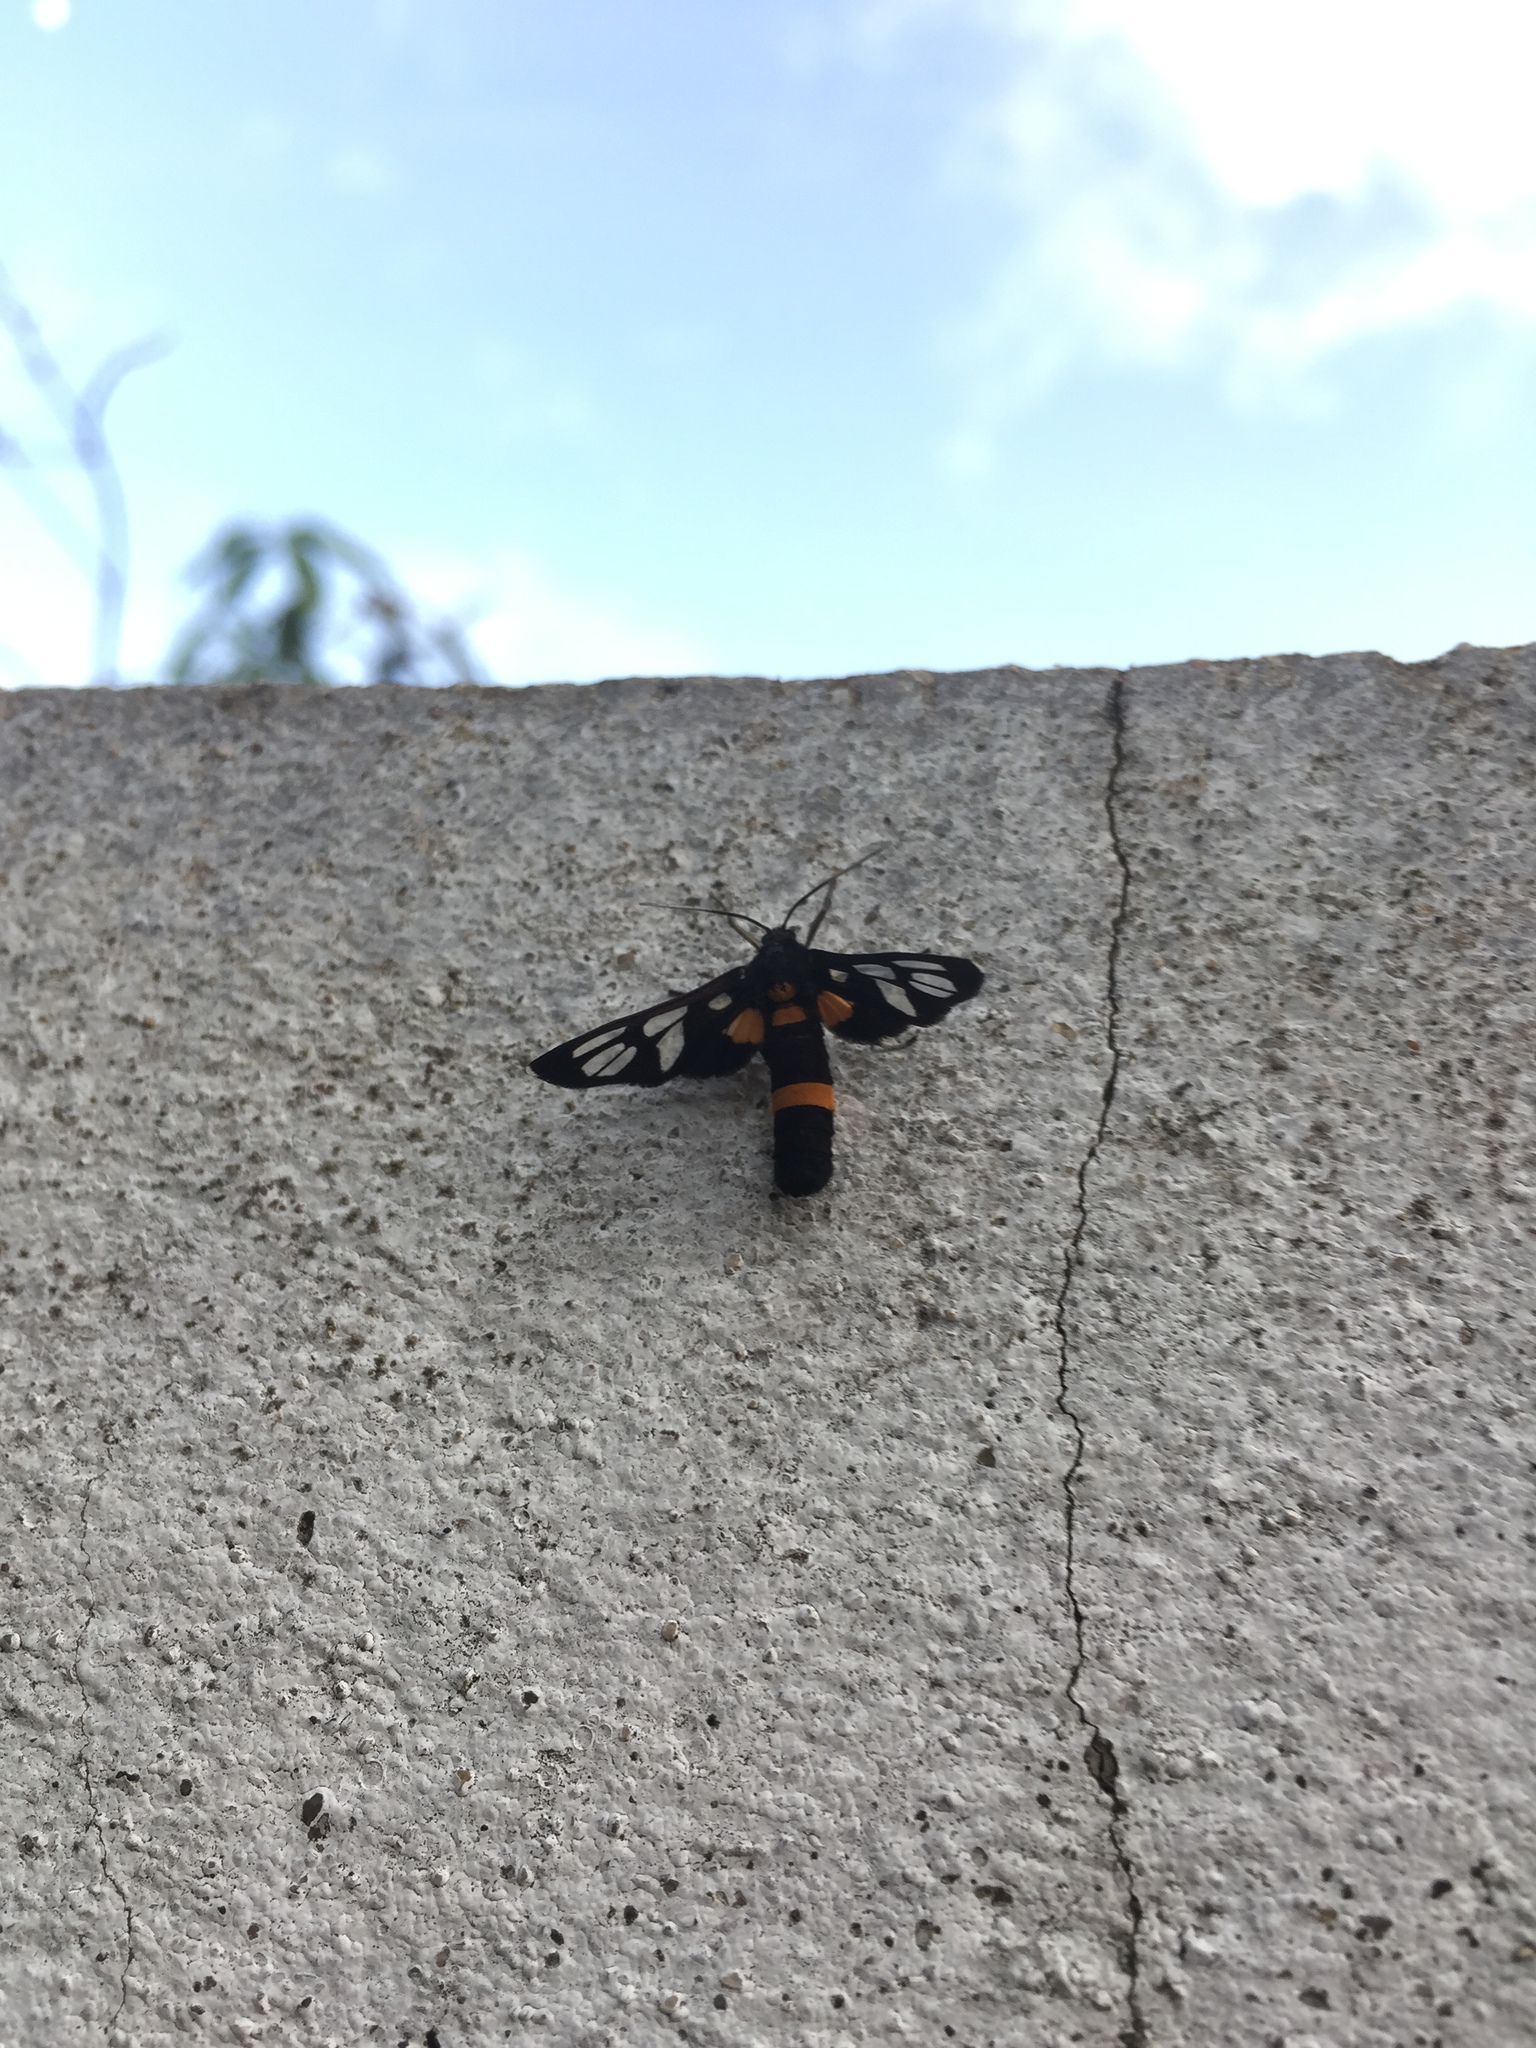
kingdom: Animalia
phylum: Arthropoda
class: Insecta
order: Lepidoptera
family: Erebidae
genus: Amata
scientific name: Amata sperbius
